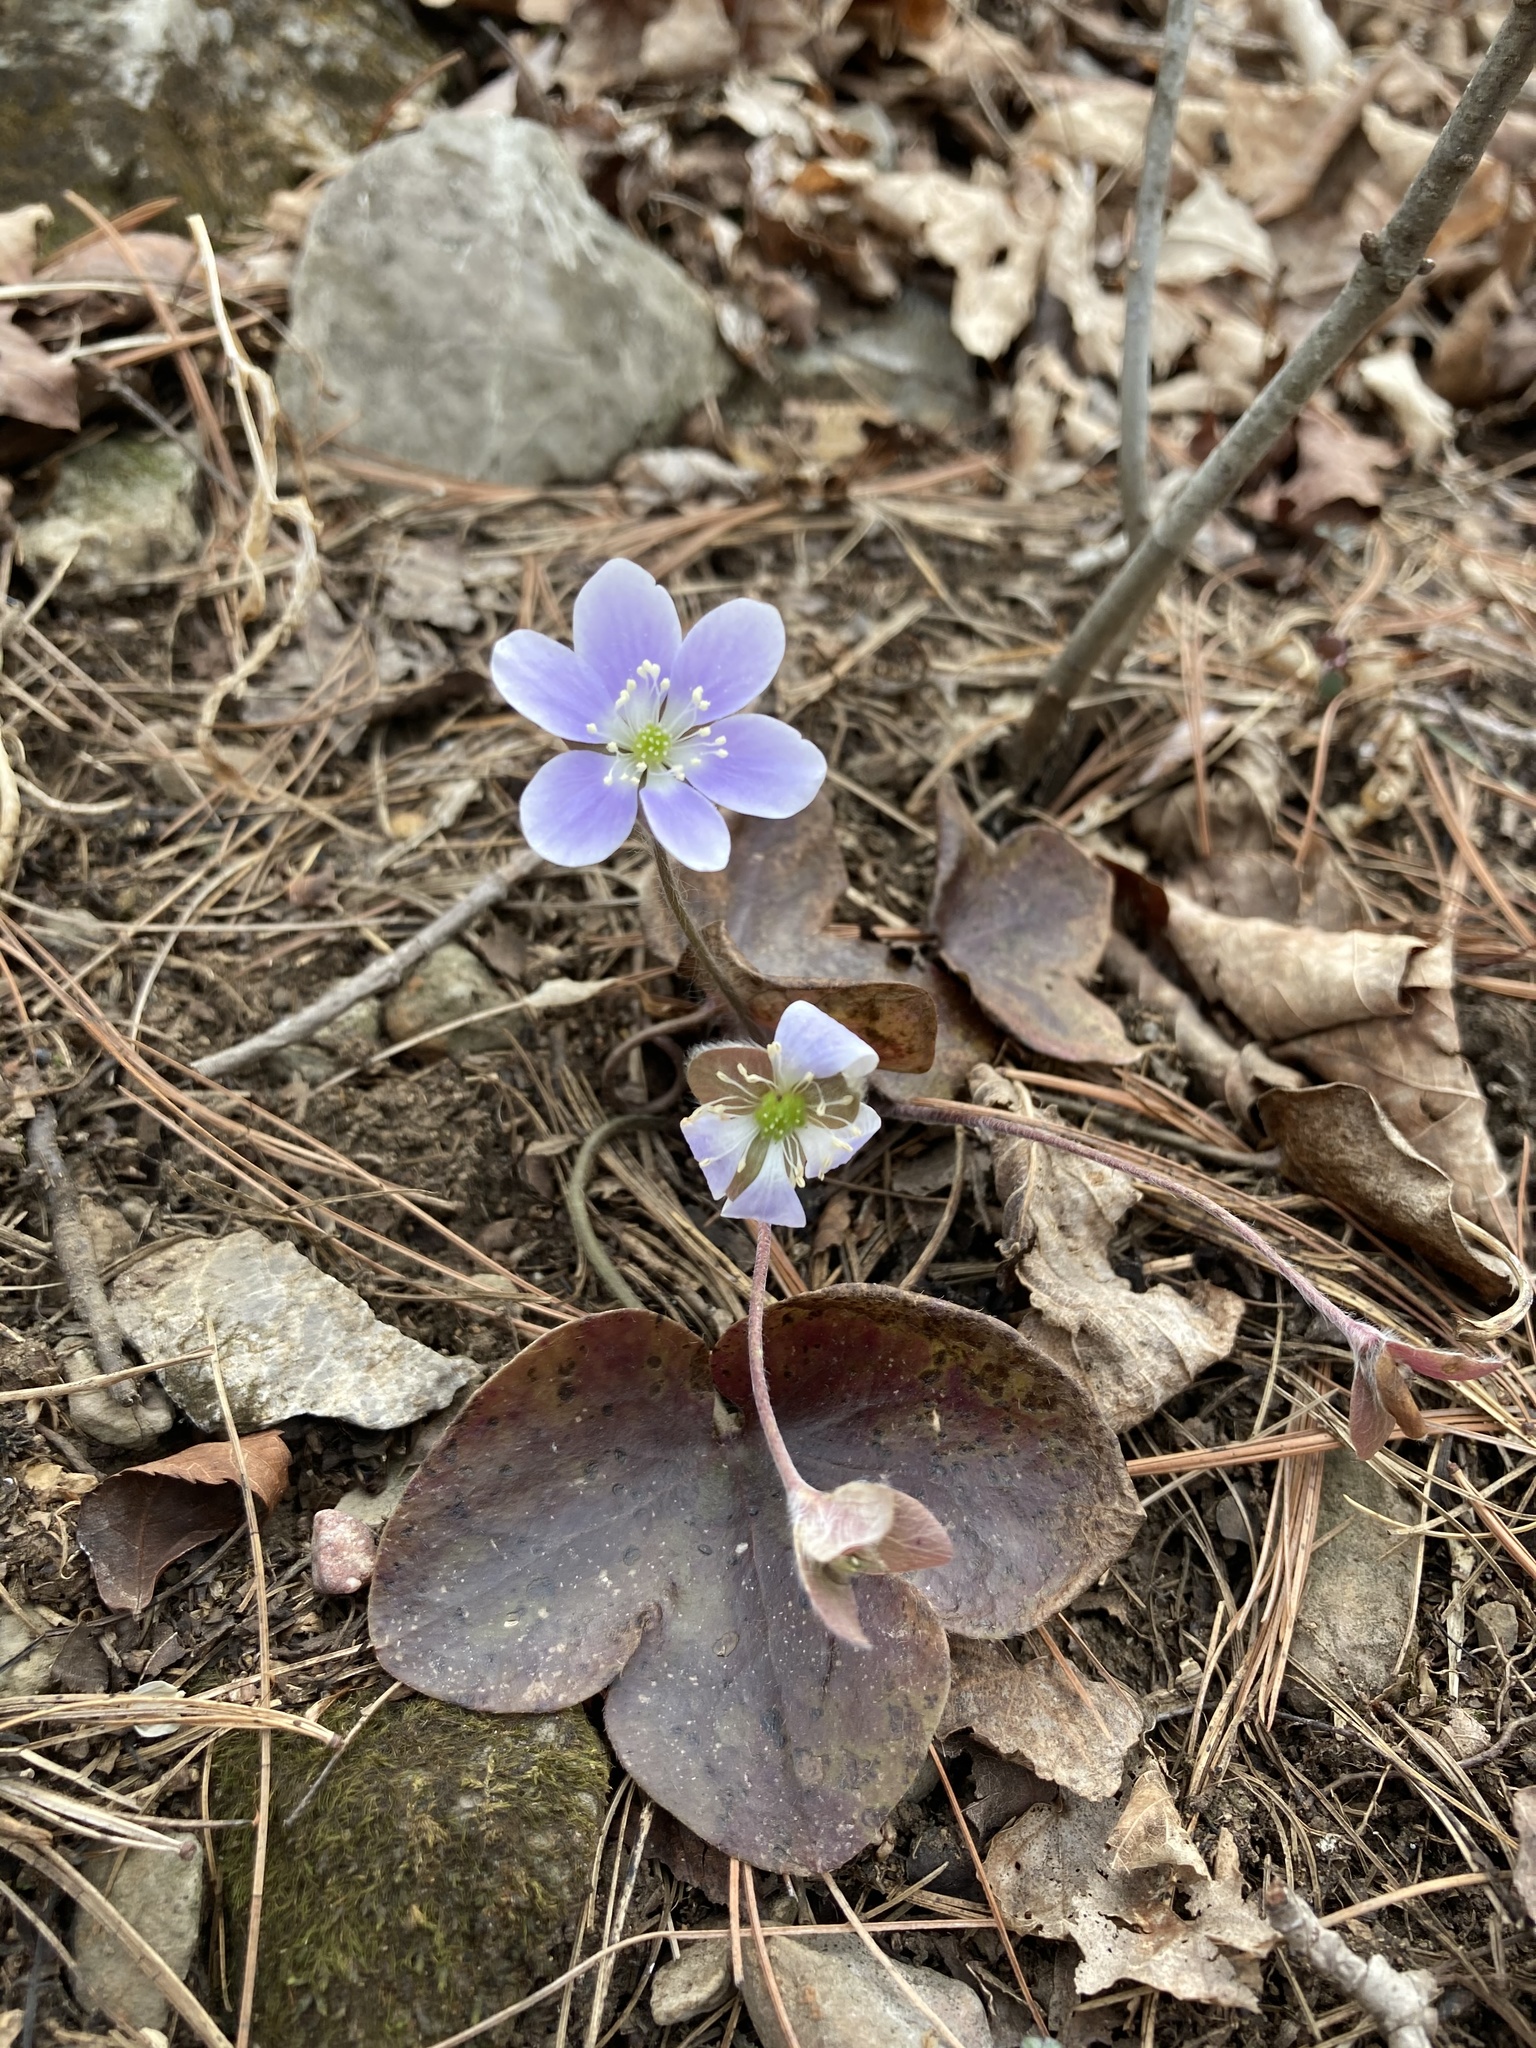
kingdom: Plantae
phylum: Tracheophyta
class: Magnoliopsida
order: Ranunculales
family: Ranunculaceae
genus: Hepatica
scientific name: Hepatica americana
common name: American hepatica
